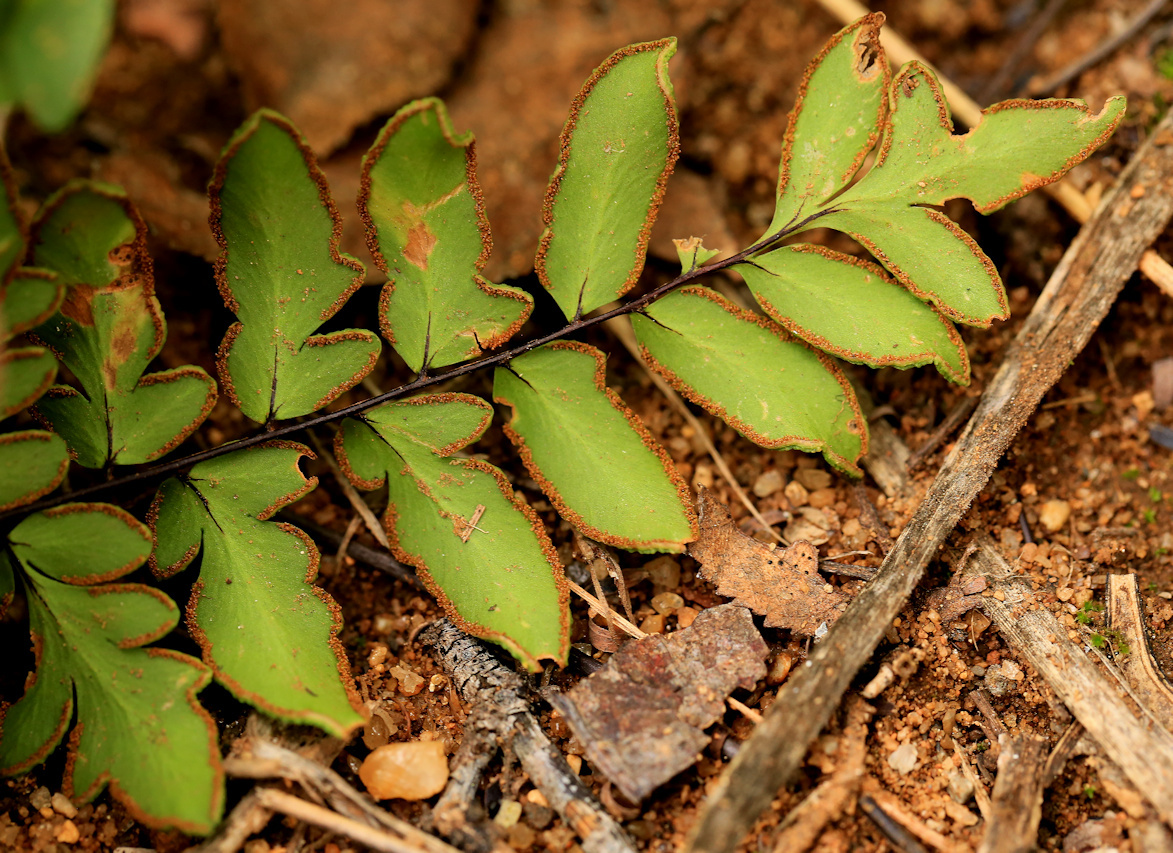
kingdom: Plantae
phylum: Tracheophyta
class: Polypodiopsida
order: Polypodiales
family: Pteridaceae
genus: Cheilanthes
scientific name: Cheilanthes viridis
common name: Green cliffbrake
